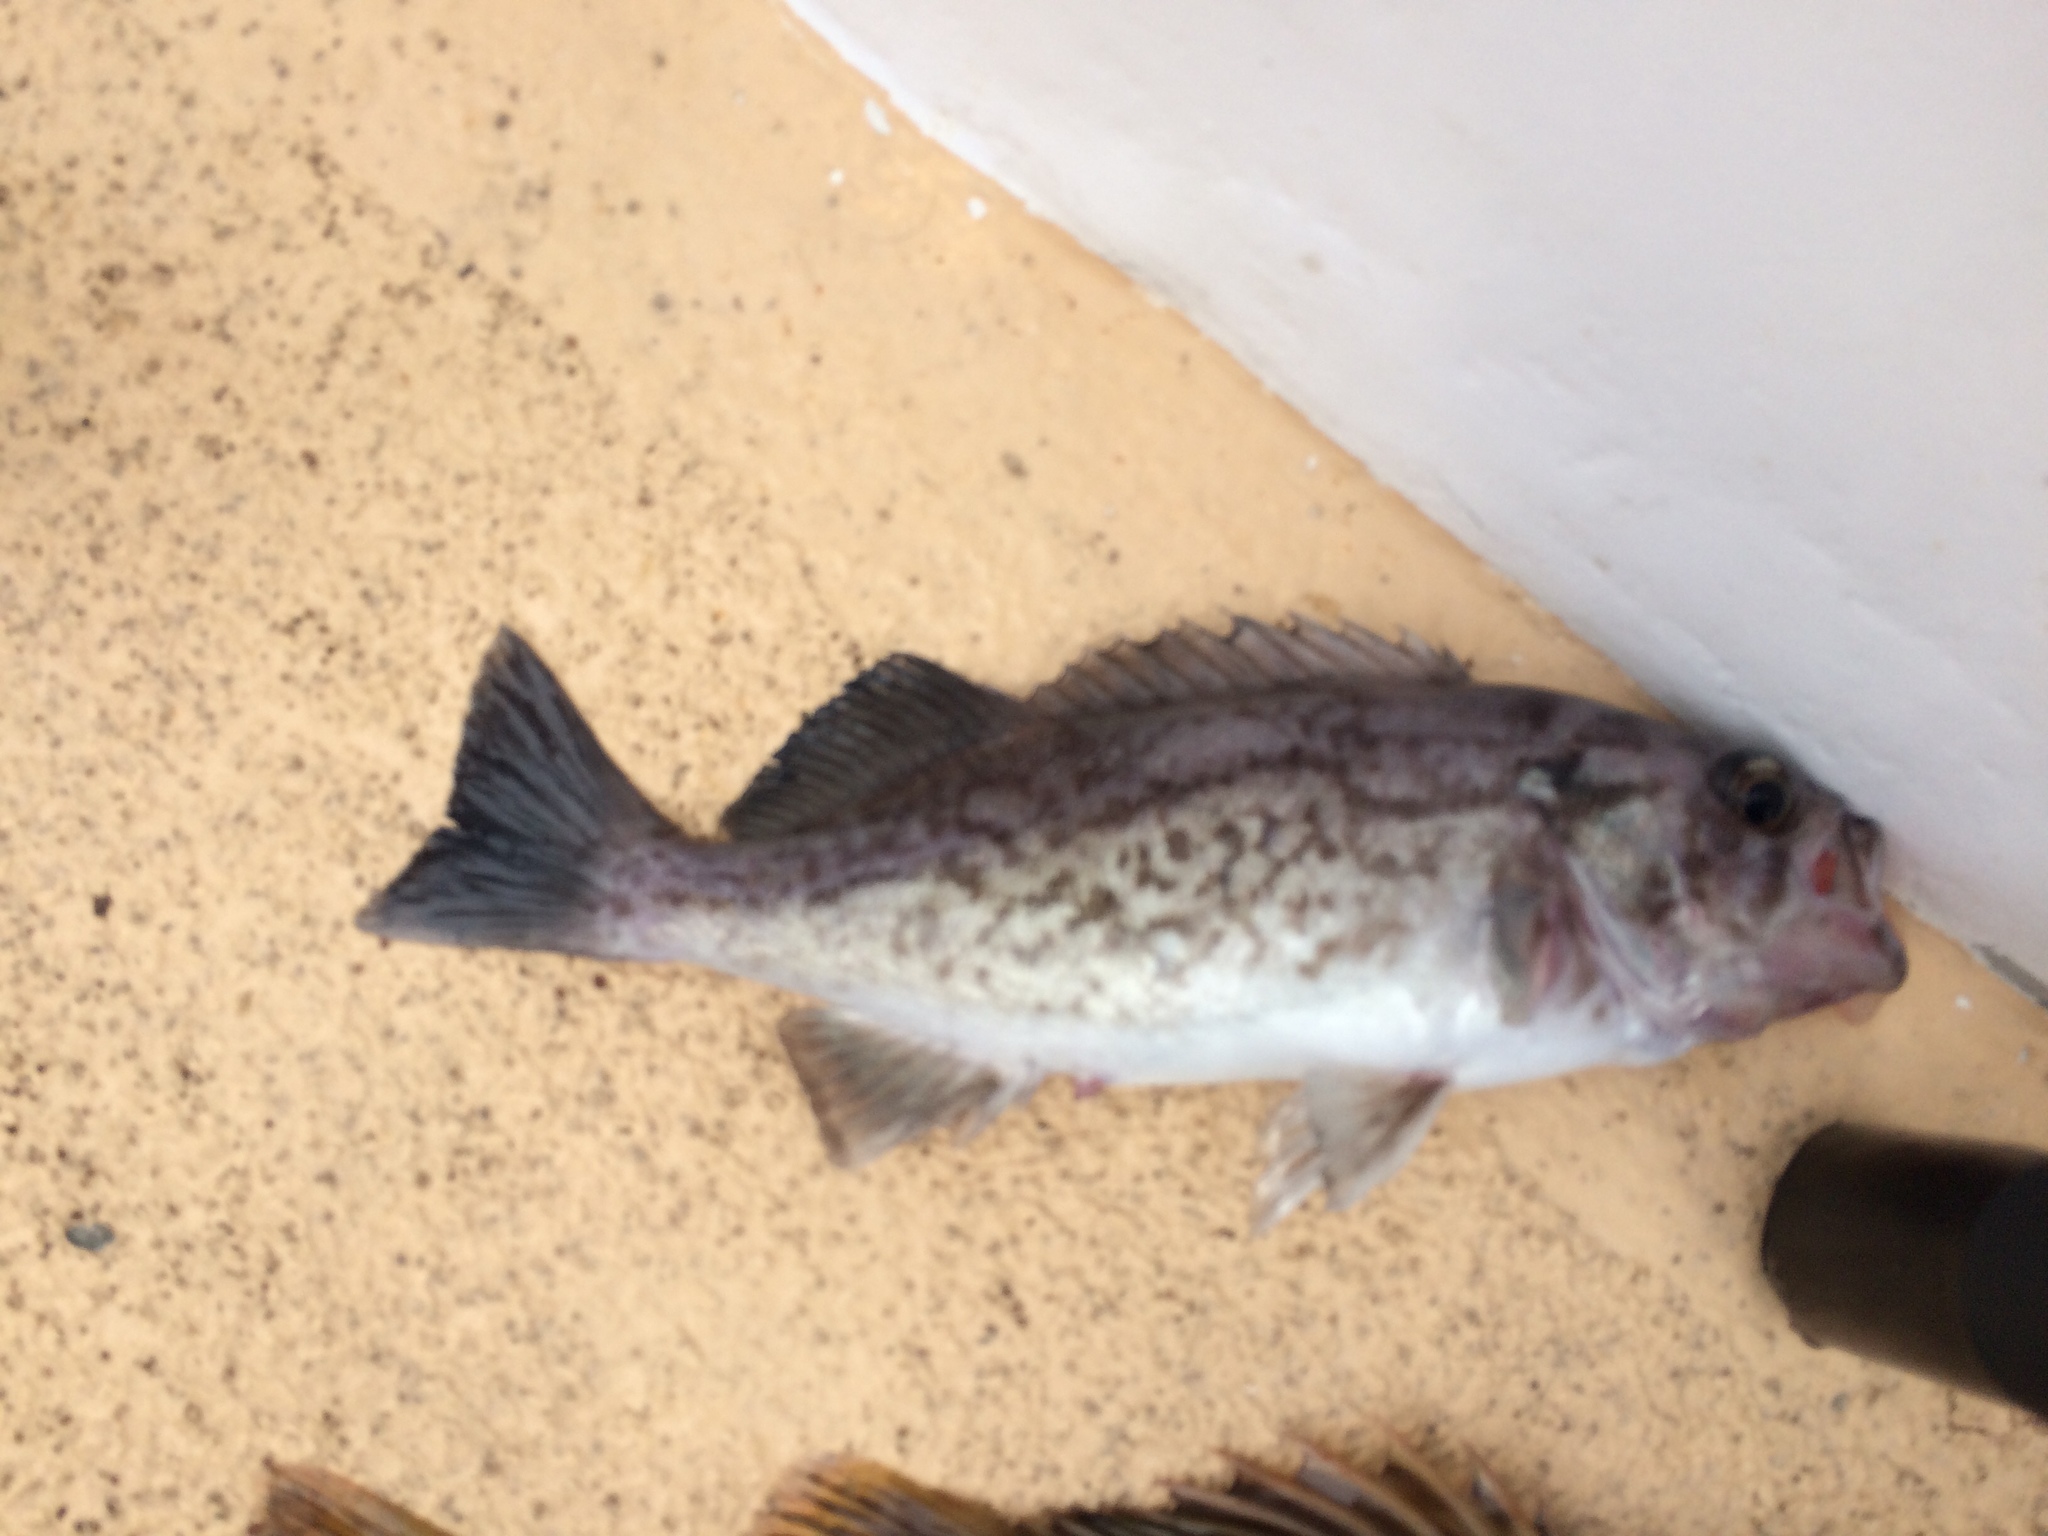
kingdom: Animalia
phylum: Chordata
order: Scorpaeniformes
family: Sebastidae
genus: Sebastes
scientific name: Sebastes mystinus
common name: Blue rockfish
